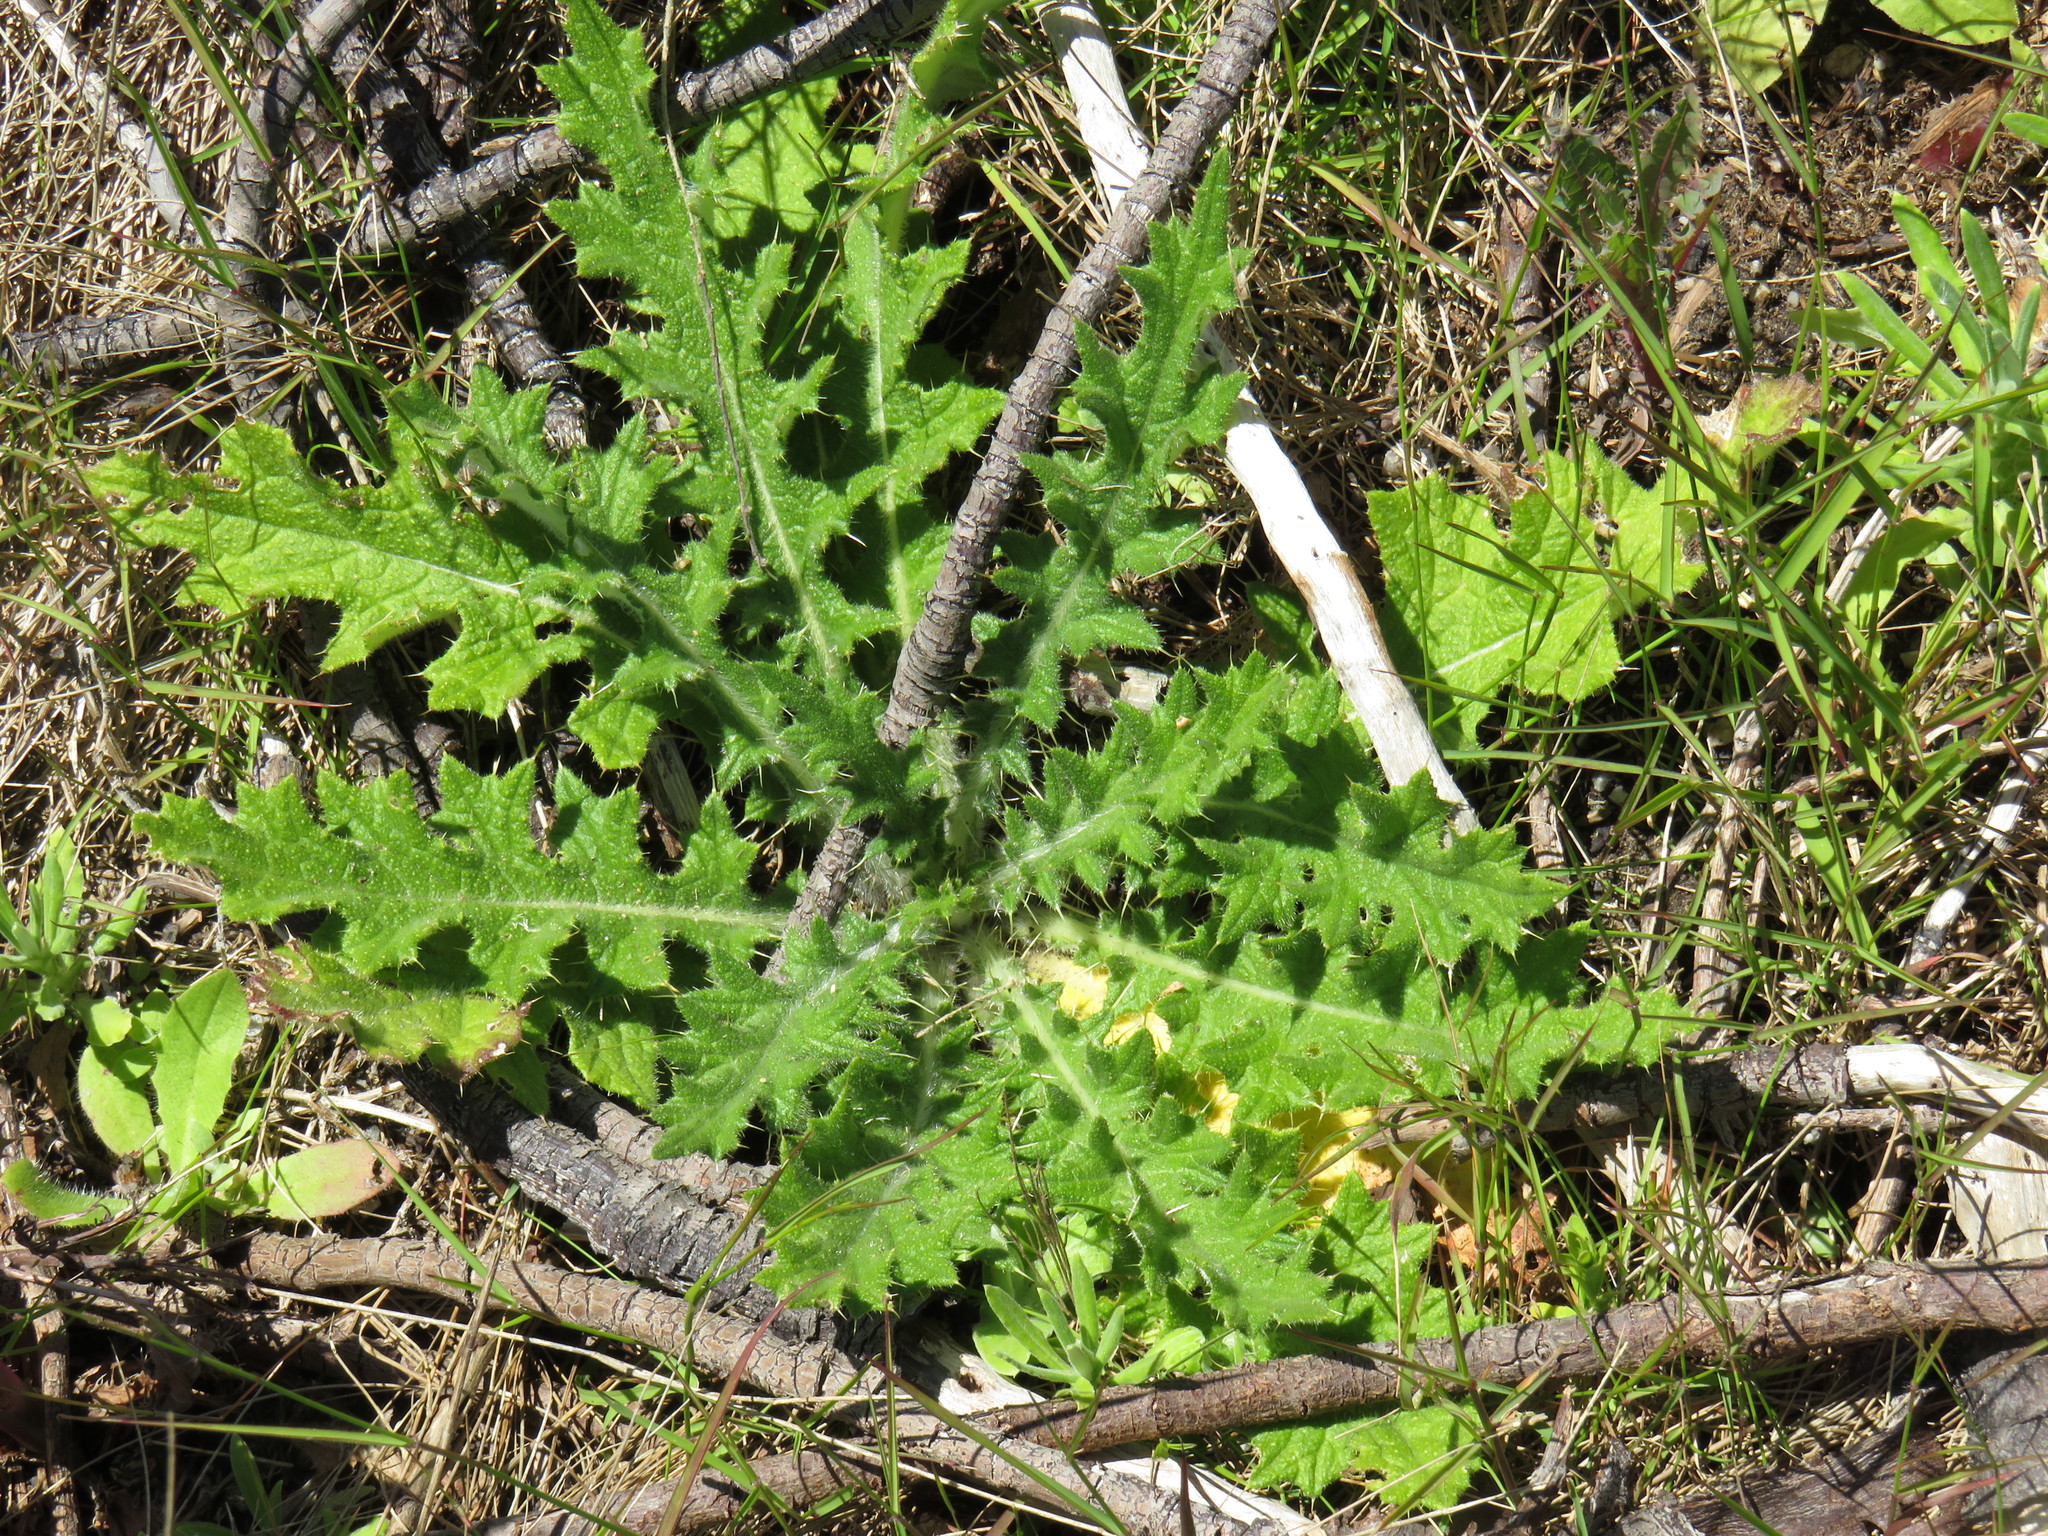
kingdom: Plantae
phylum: Tracheophyta
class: Magnoliopsida
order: Asterales
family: Asteraceae
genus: Cirsium
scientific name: Cirsium vulgare
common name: Bull thistle
